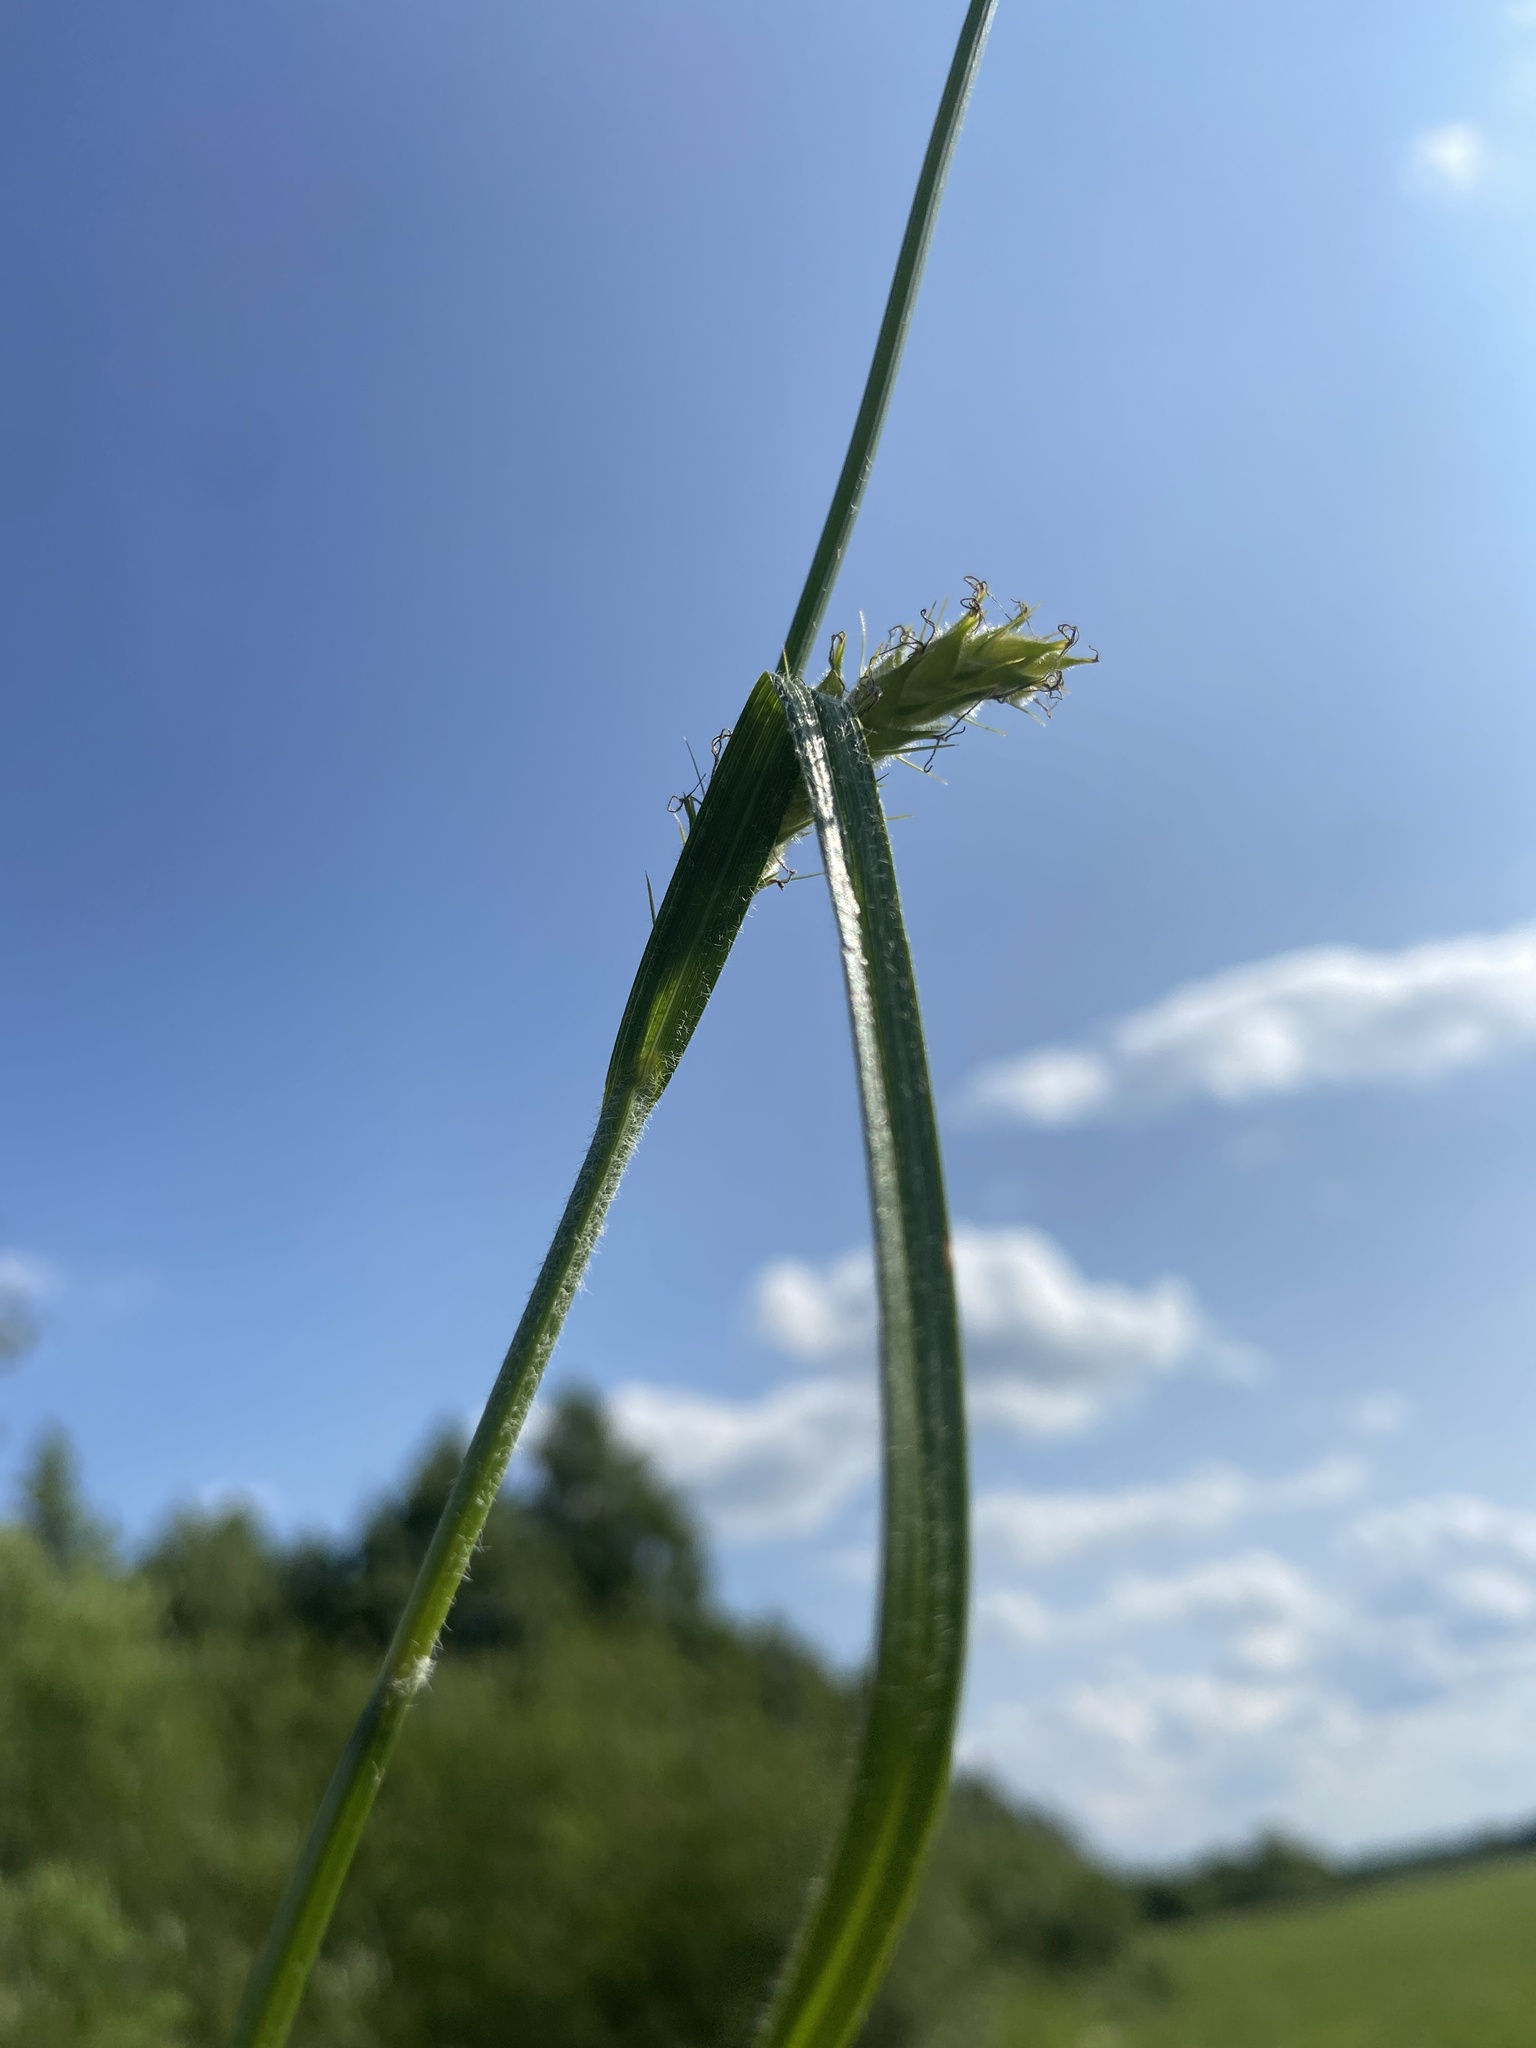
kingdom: Plantae
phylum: Tracheophyta
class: Liliopsida
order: Poales
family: Cyperaceae
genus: Carex
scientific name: Carex hirta
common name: Hairy sedge
